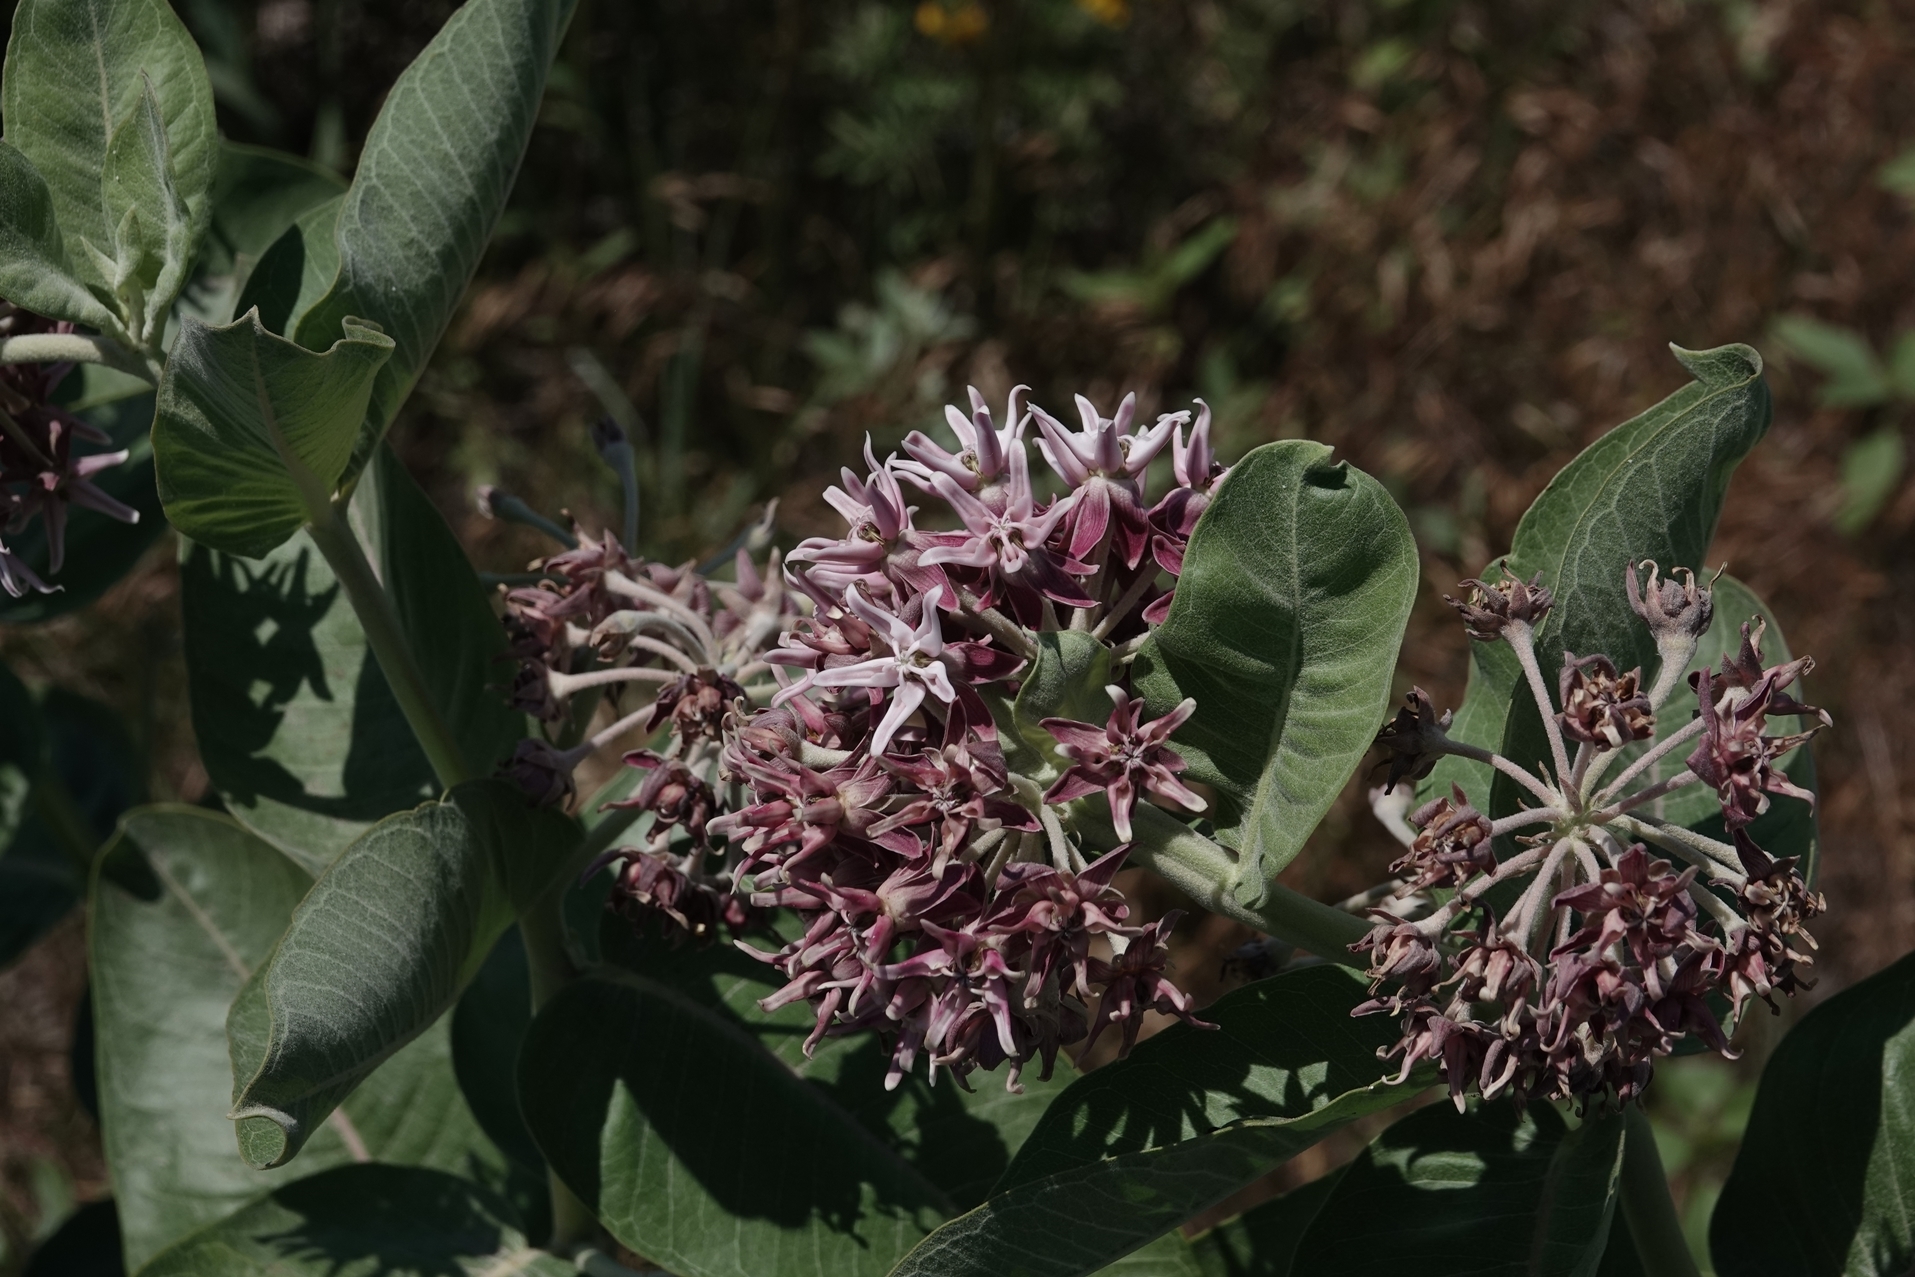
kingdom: Plantae
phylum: Tracheophyta
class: Magnoliopsida
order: Gentianales
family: Apocynaceae
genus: Asclepias
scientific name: Asclepias speciosa
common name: Showy milkweed
